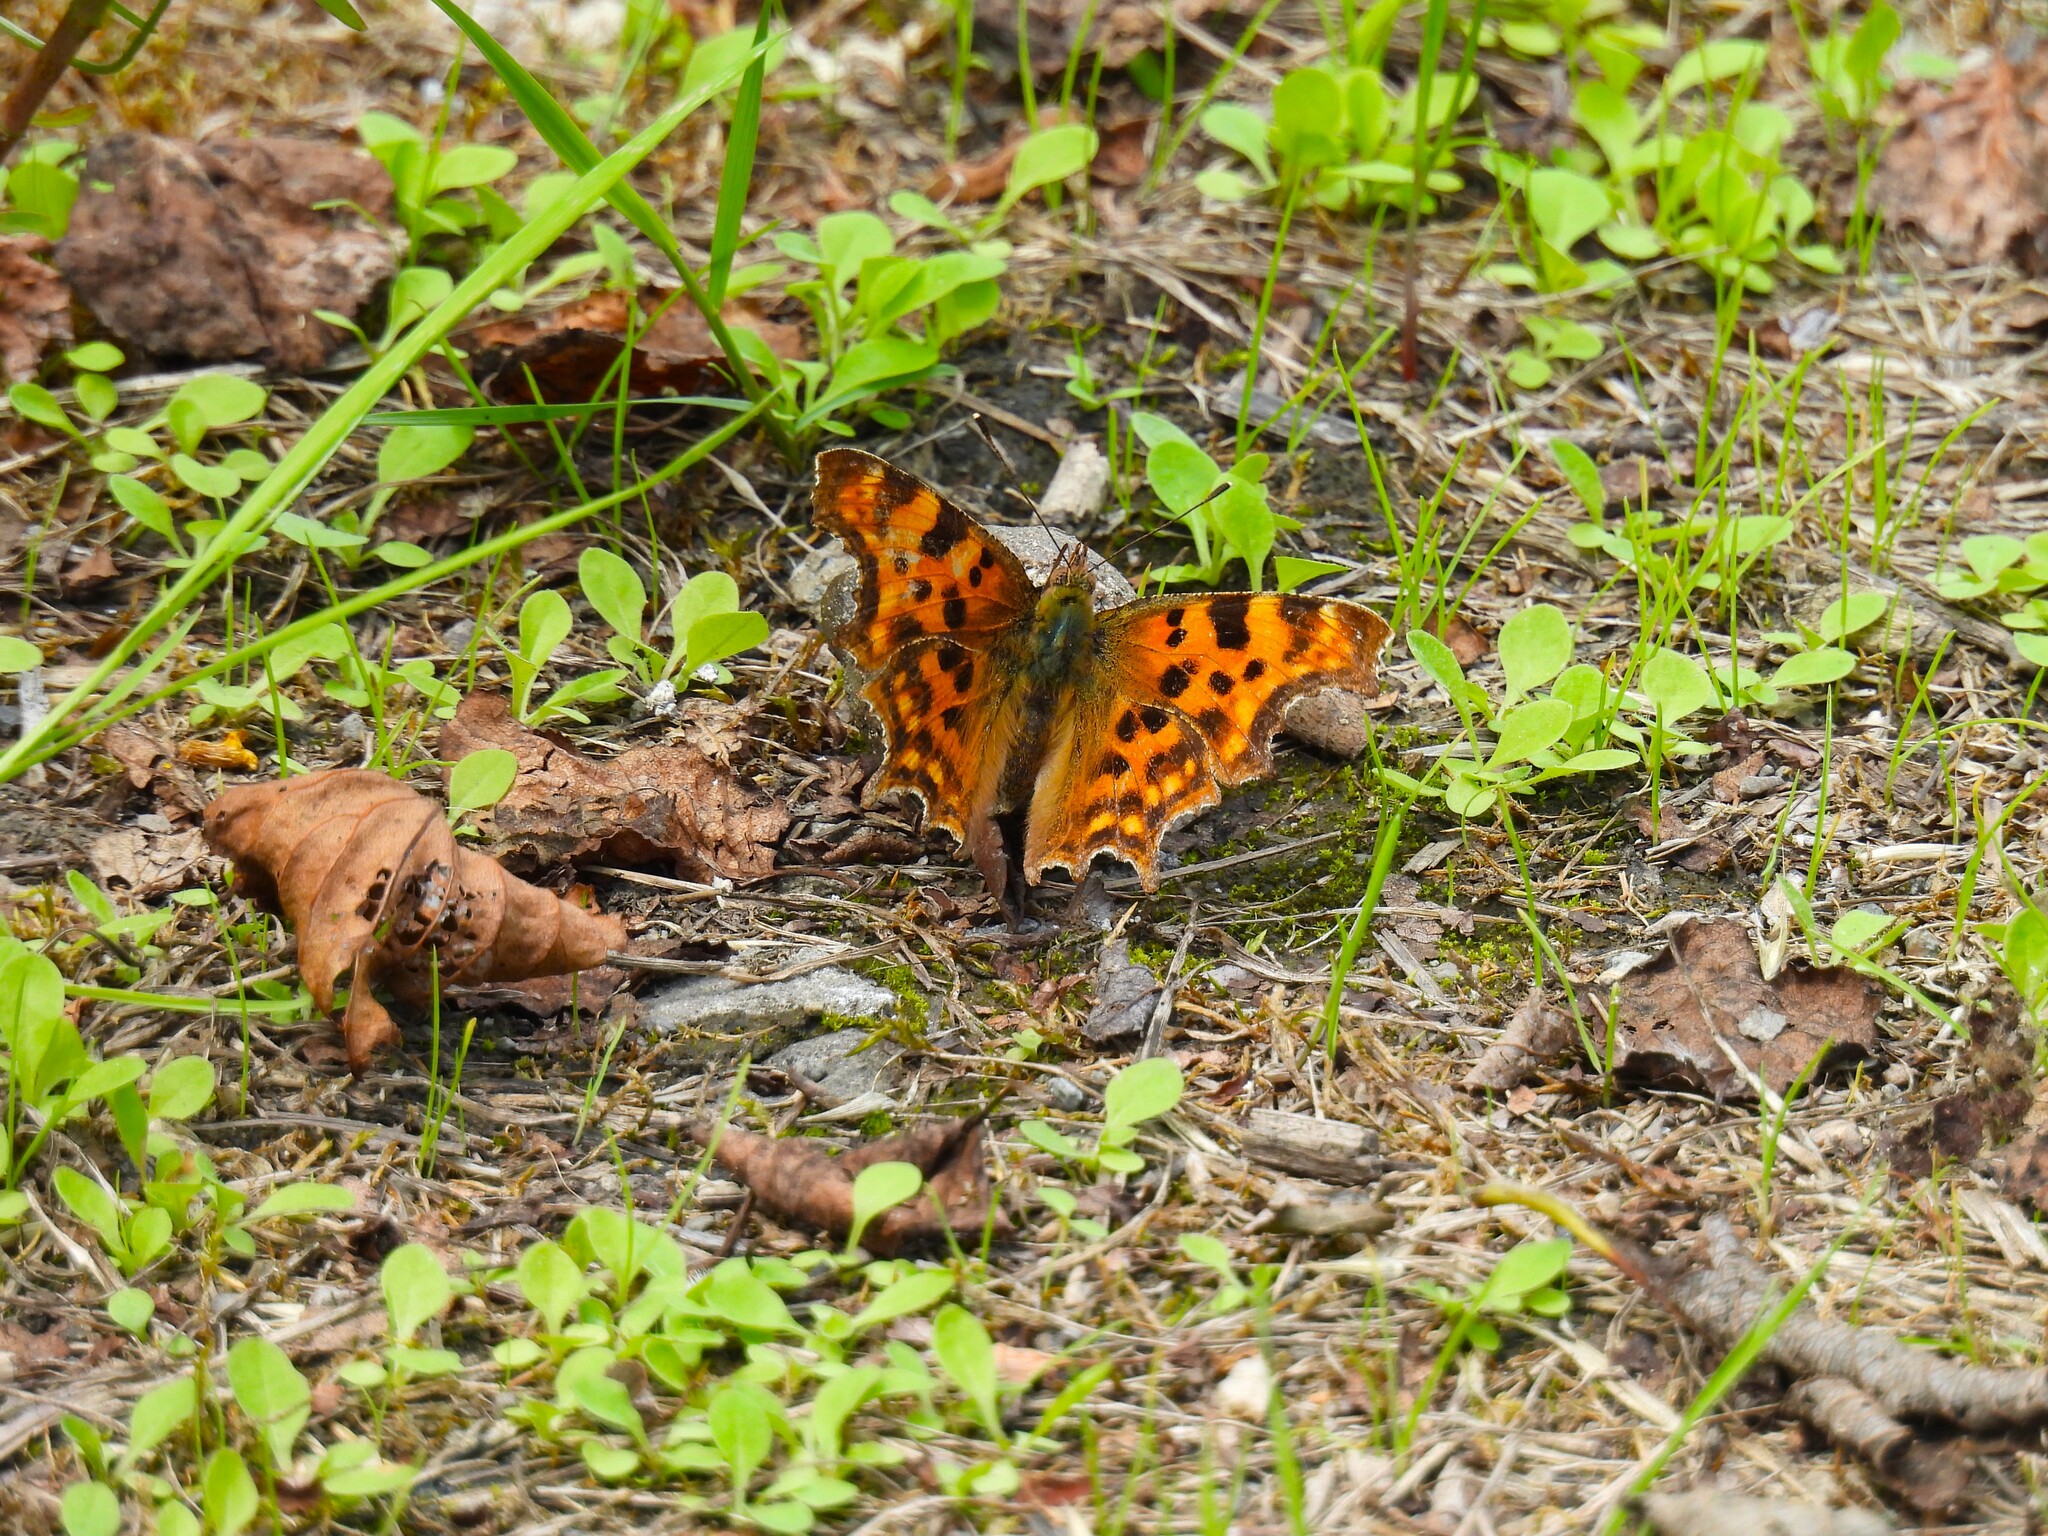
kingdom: Animalia
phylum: Arthropoda
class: Insecta
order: Lepidoptera
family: Nymphalidae
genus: Polygonia
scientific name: Polygonia c-album
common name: Comma
